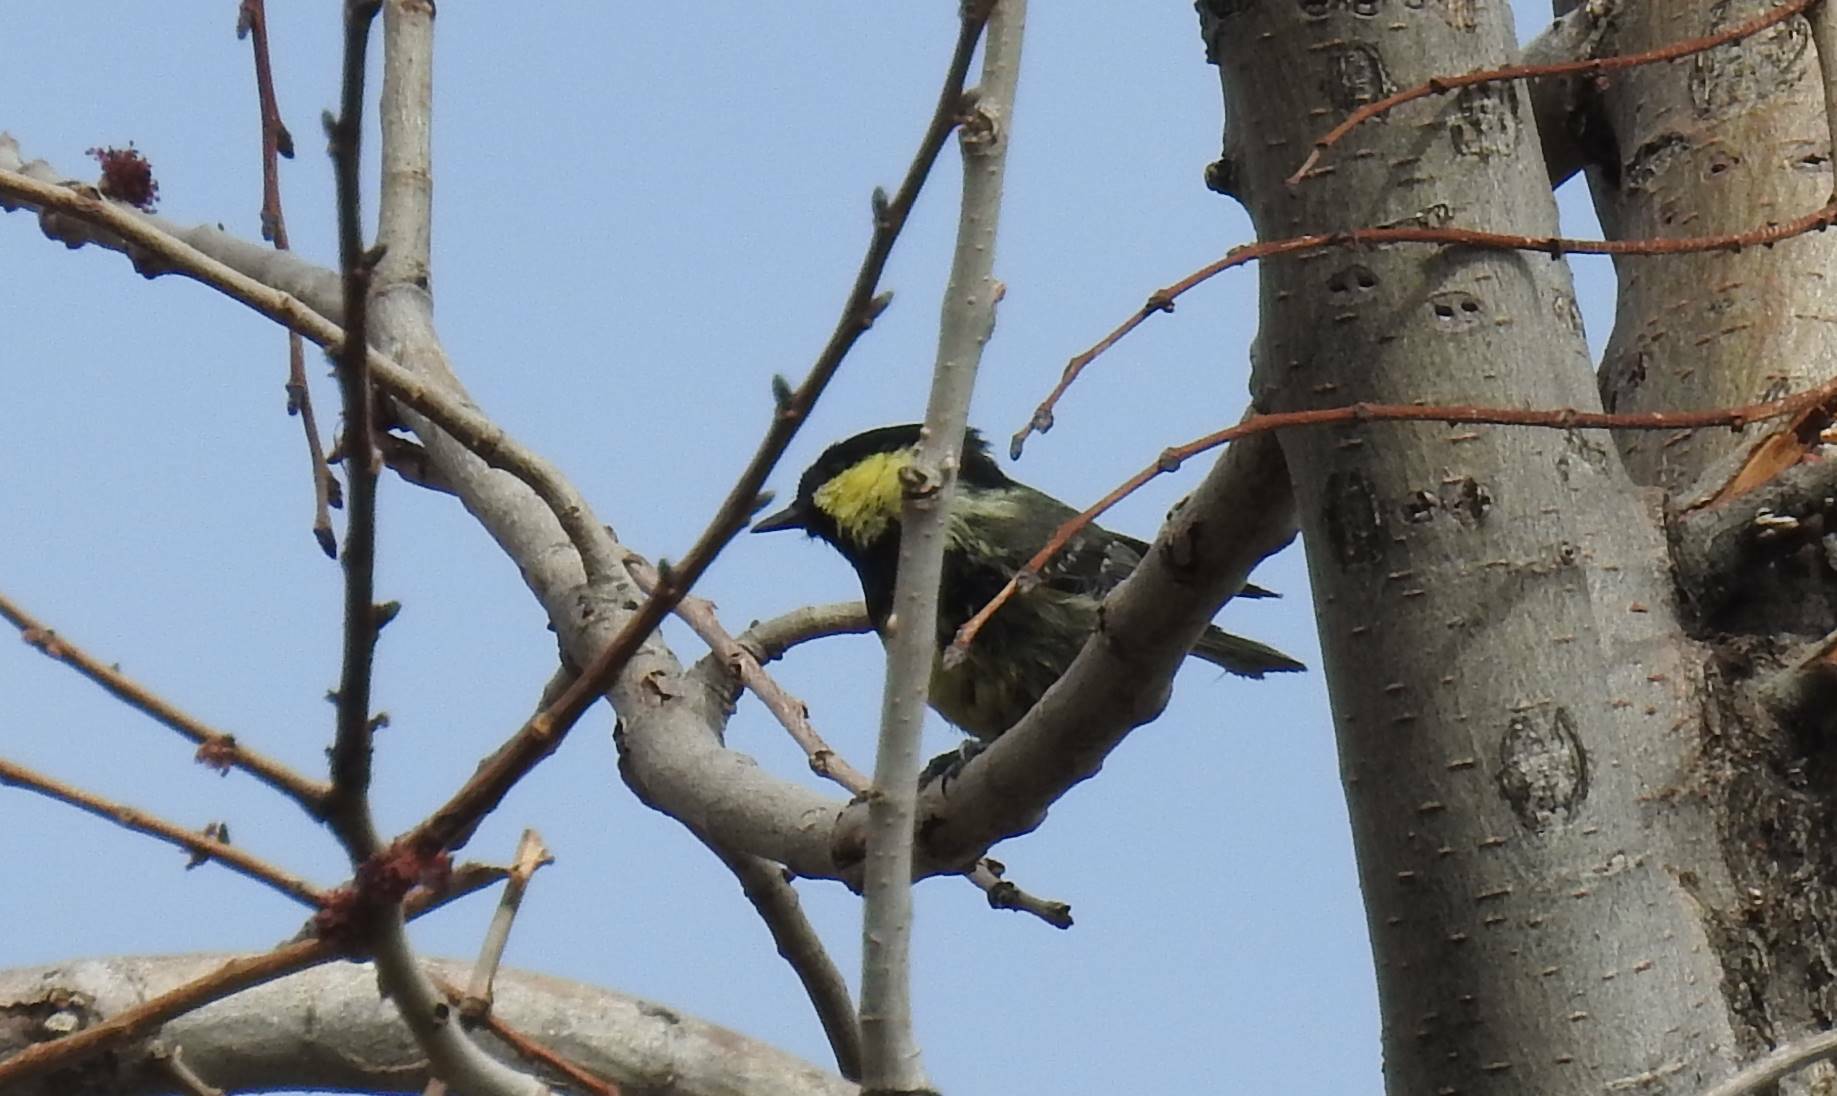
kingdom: Animalia
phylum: Chordata
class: Aves
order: Passeriformes
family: Paridae
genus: Periparus
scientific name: Periparus ater
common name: Coal tit
